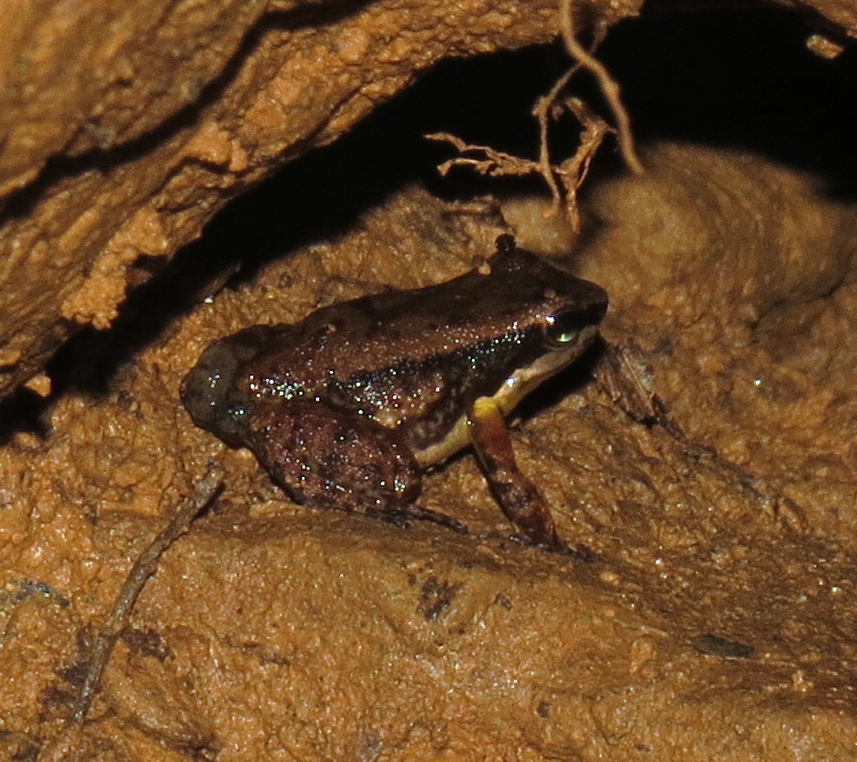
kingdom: Animalia
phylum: Chordata
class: Amphibia
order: Anura
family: Aromobatidae
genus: Mannophryne
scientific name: Mannophryne trinitatis
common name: Trinidad poison frog
